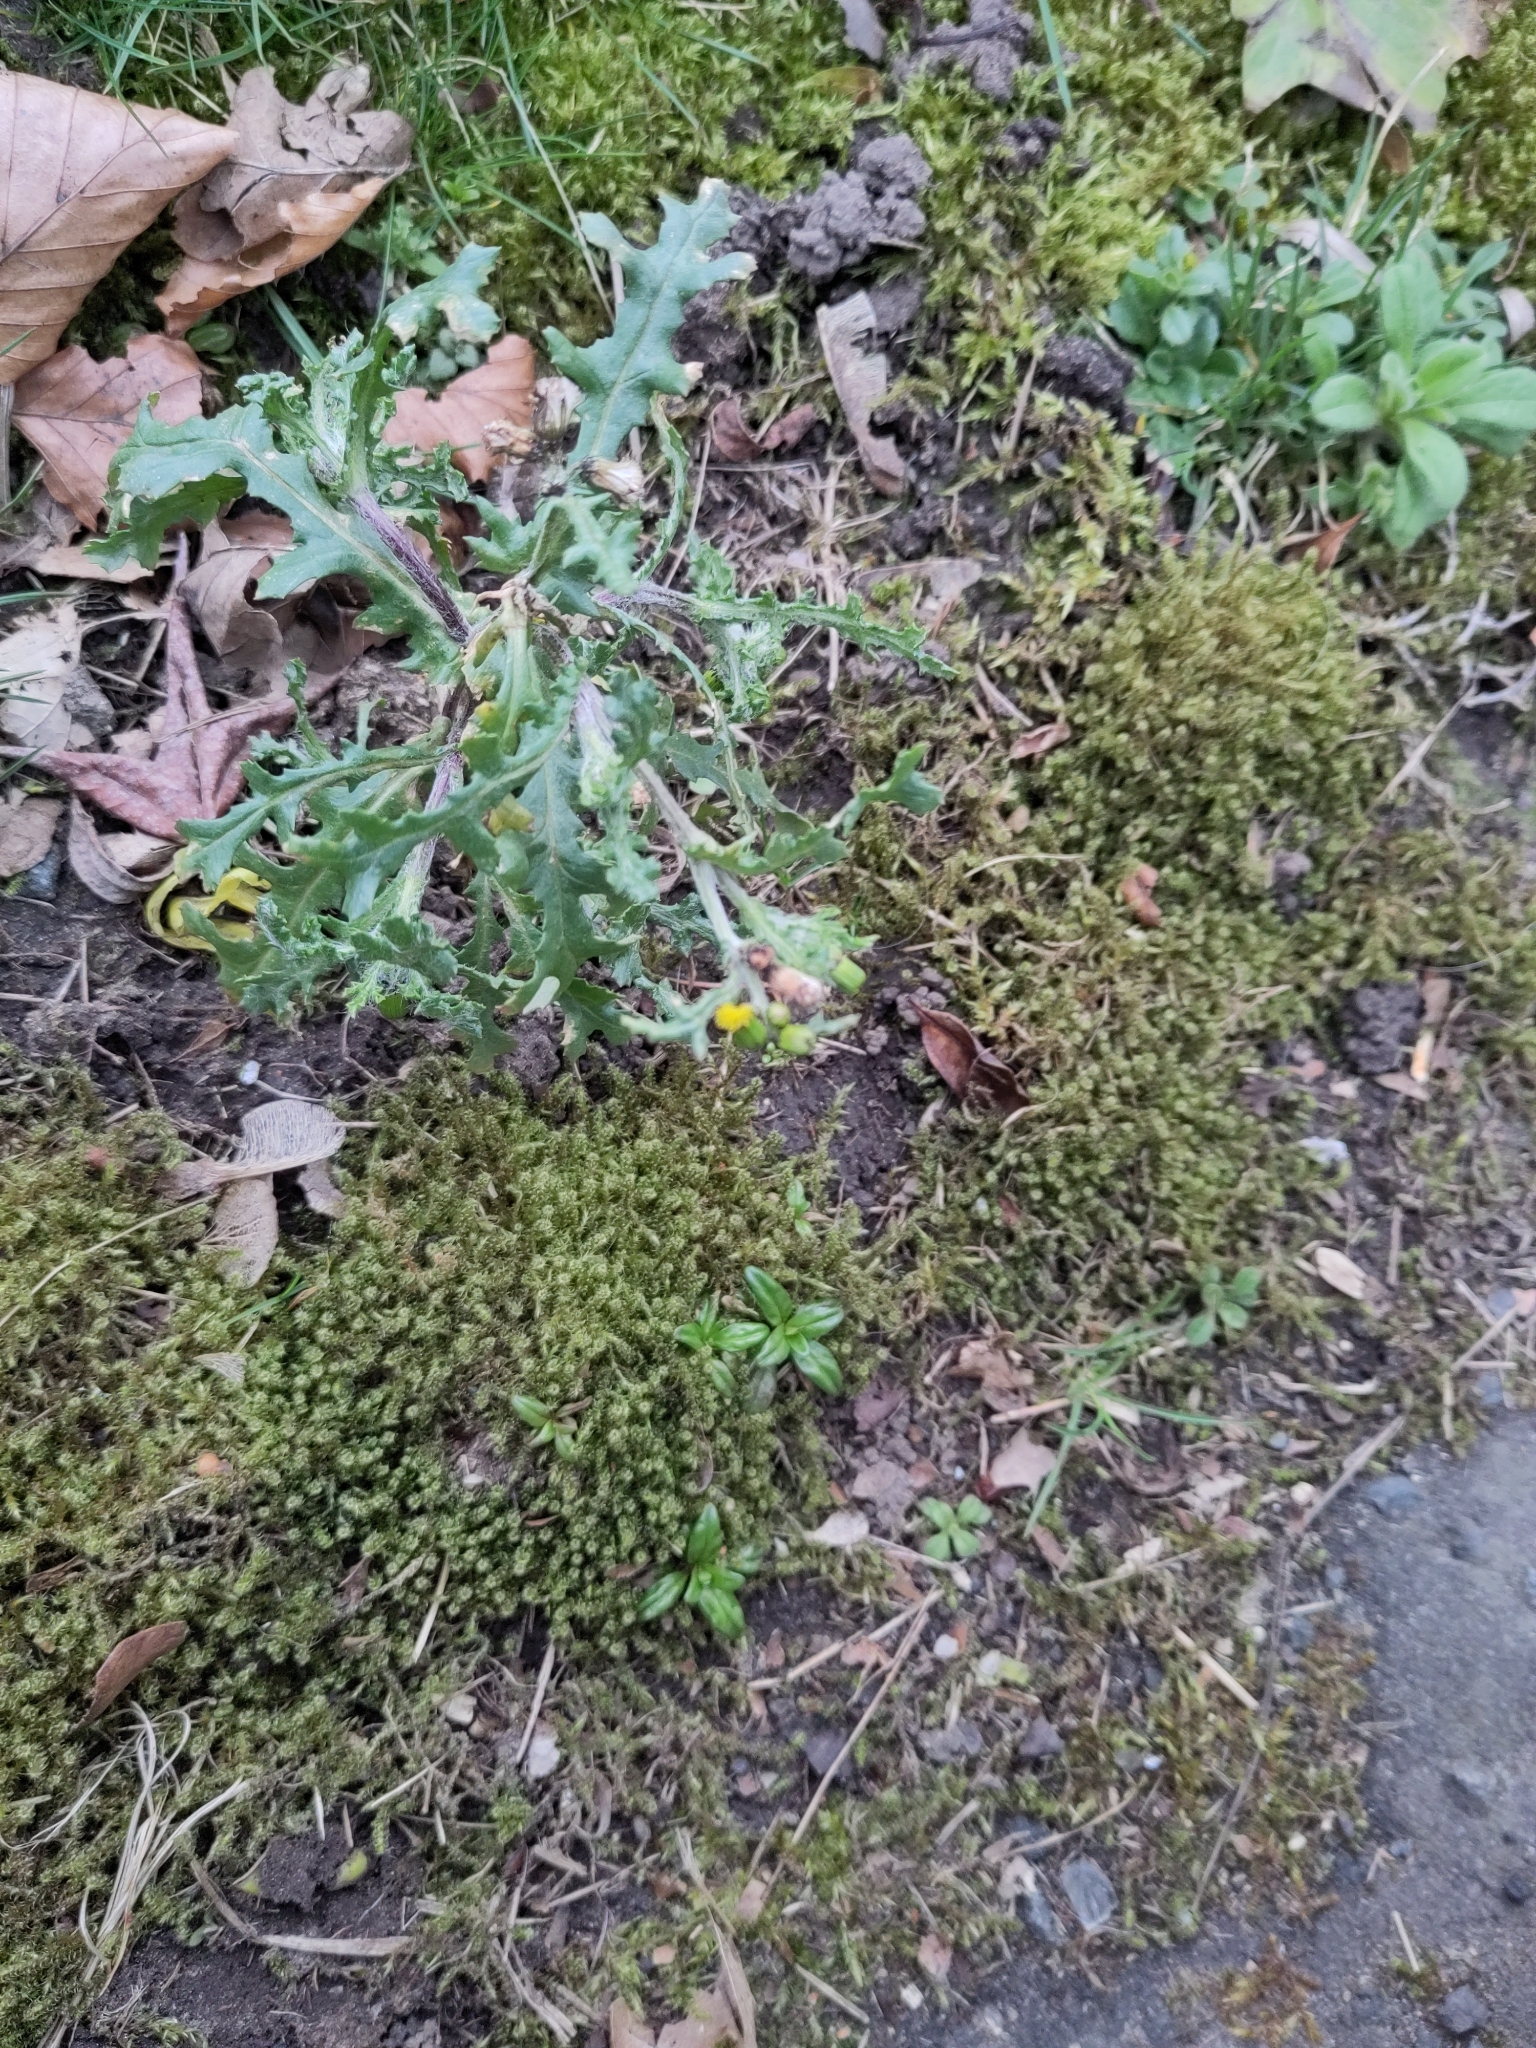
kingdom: Plantae
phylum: Tracheophyta
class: Magnoliopsida
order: Asterales
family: Asteraceae
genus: Senecio
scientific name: Senecio vulgaris
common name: Old-man-in-the-spring
